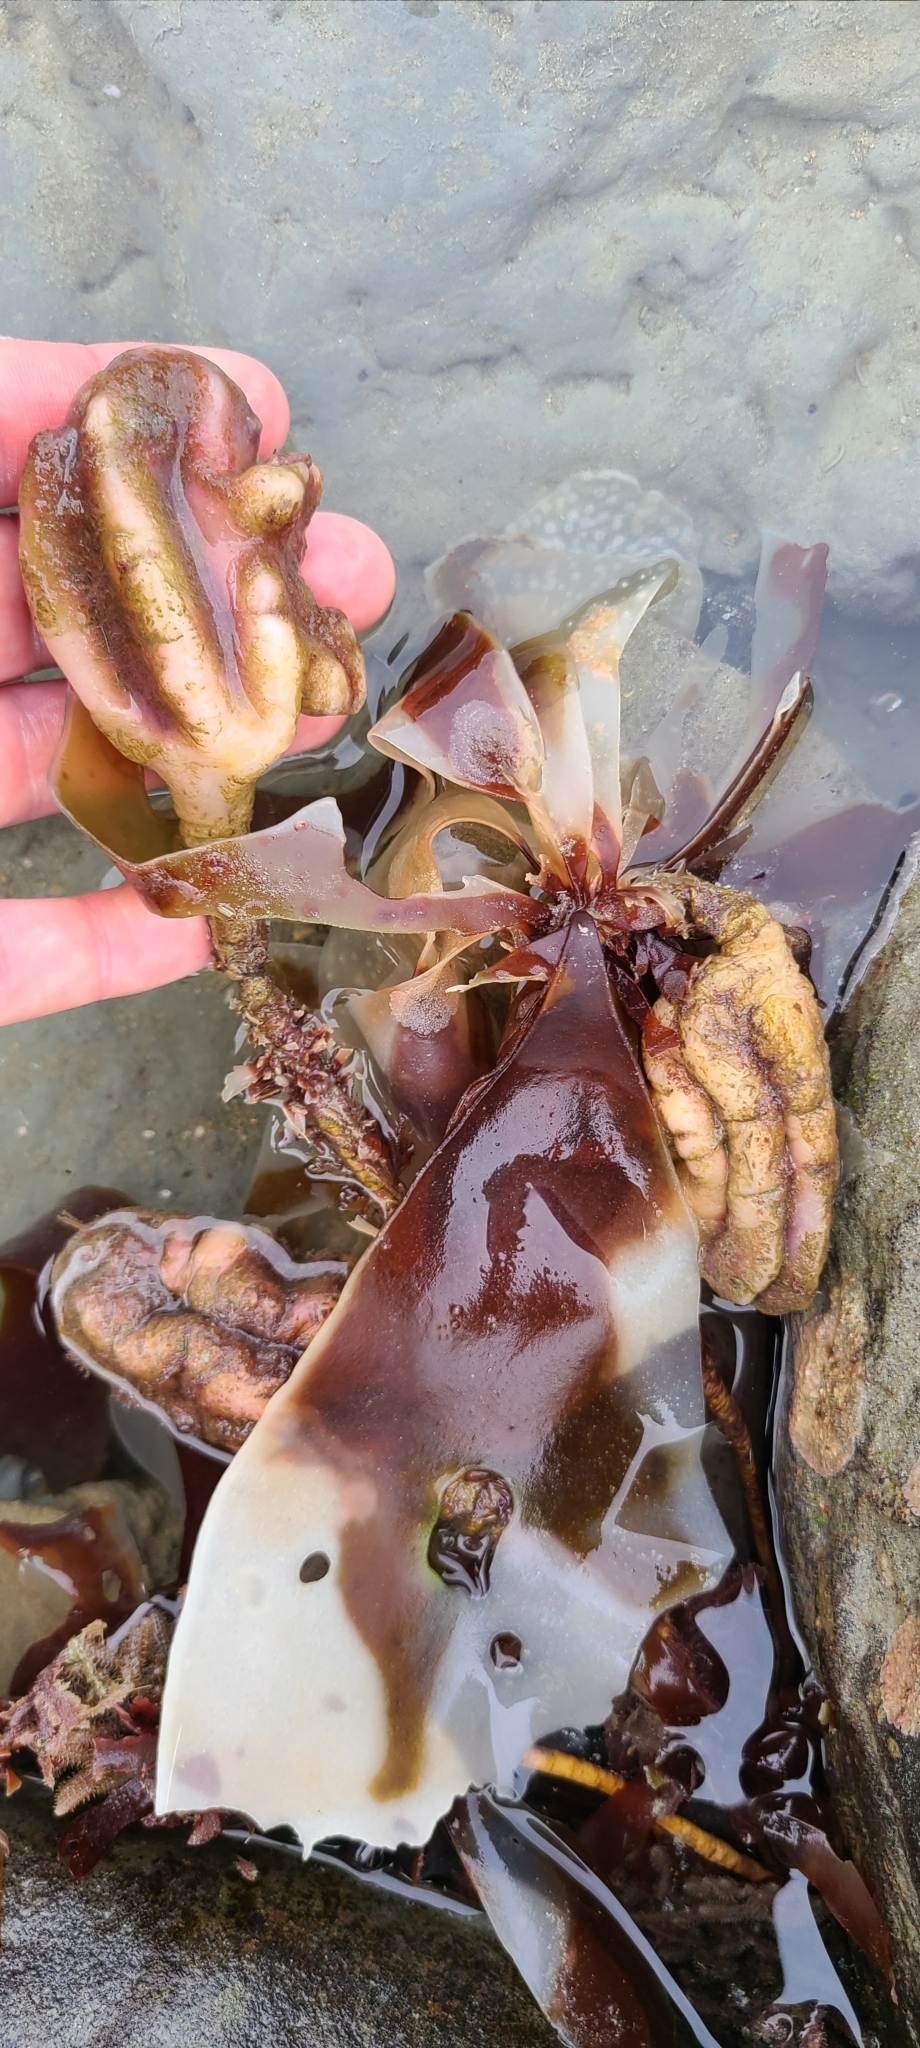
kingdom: Animalia
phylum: Chordata
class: Ascidiacea
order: Stolidobranchia
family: Pyuridae
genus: Pyura
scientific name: Pyura pachydermatina
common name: Sea tulip
